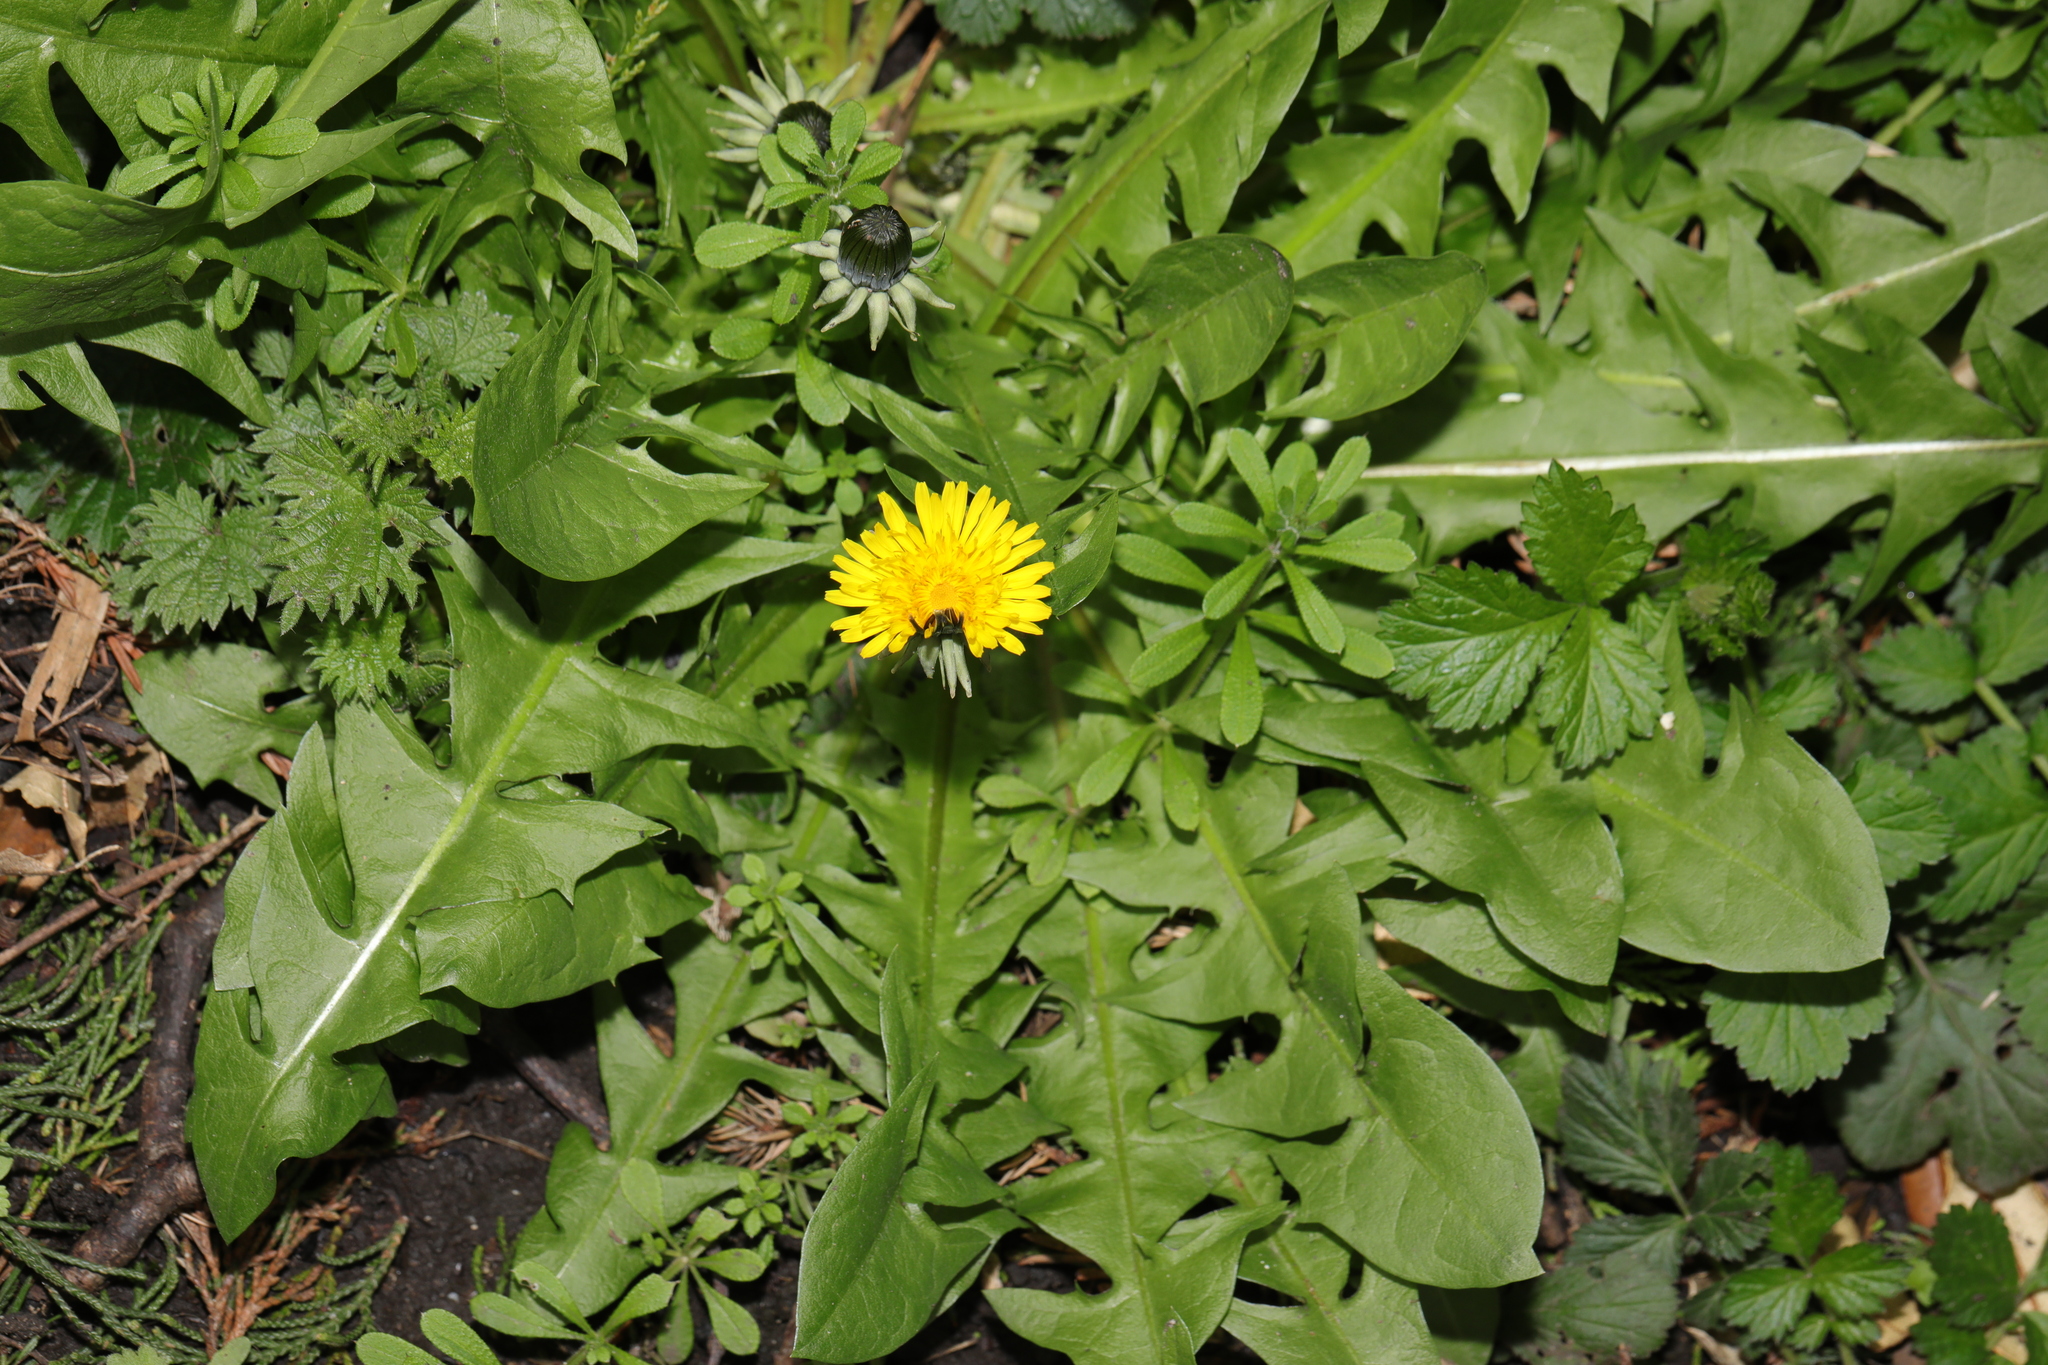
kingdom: Plantae
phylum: Tracheophyta
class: Magnoliopsida
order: Asterales
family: Asteraceae
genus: Taraxacum
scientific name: Taraxacum officinale
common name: Common dandelion
